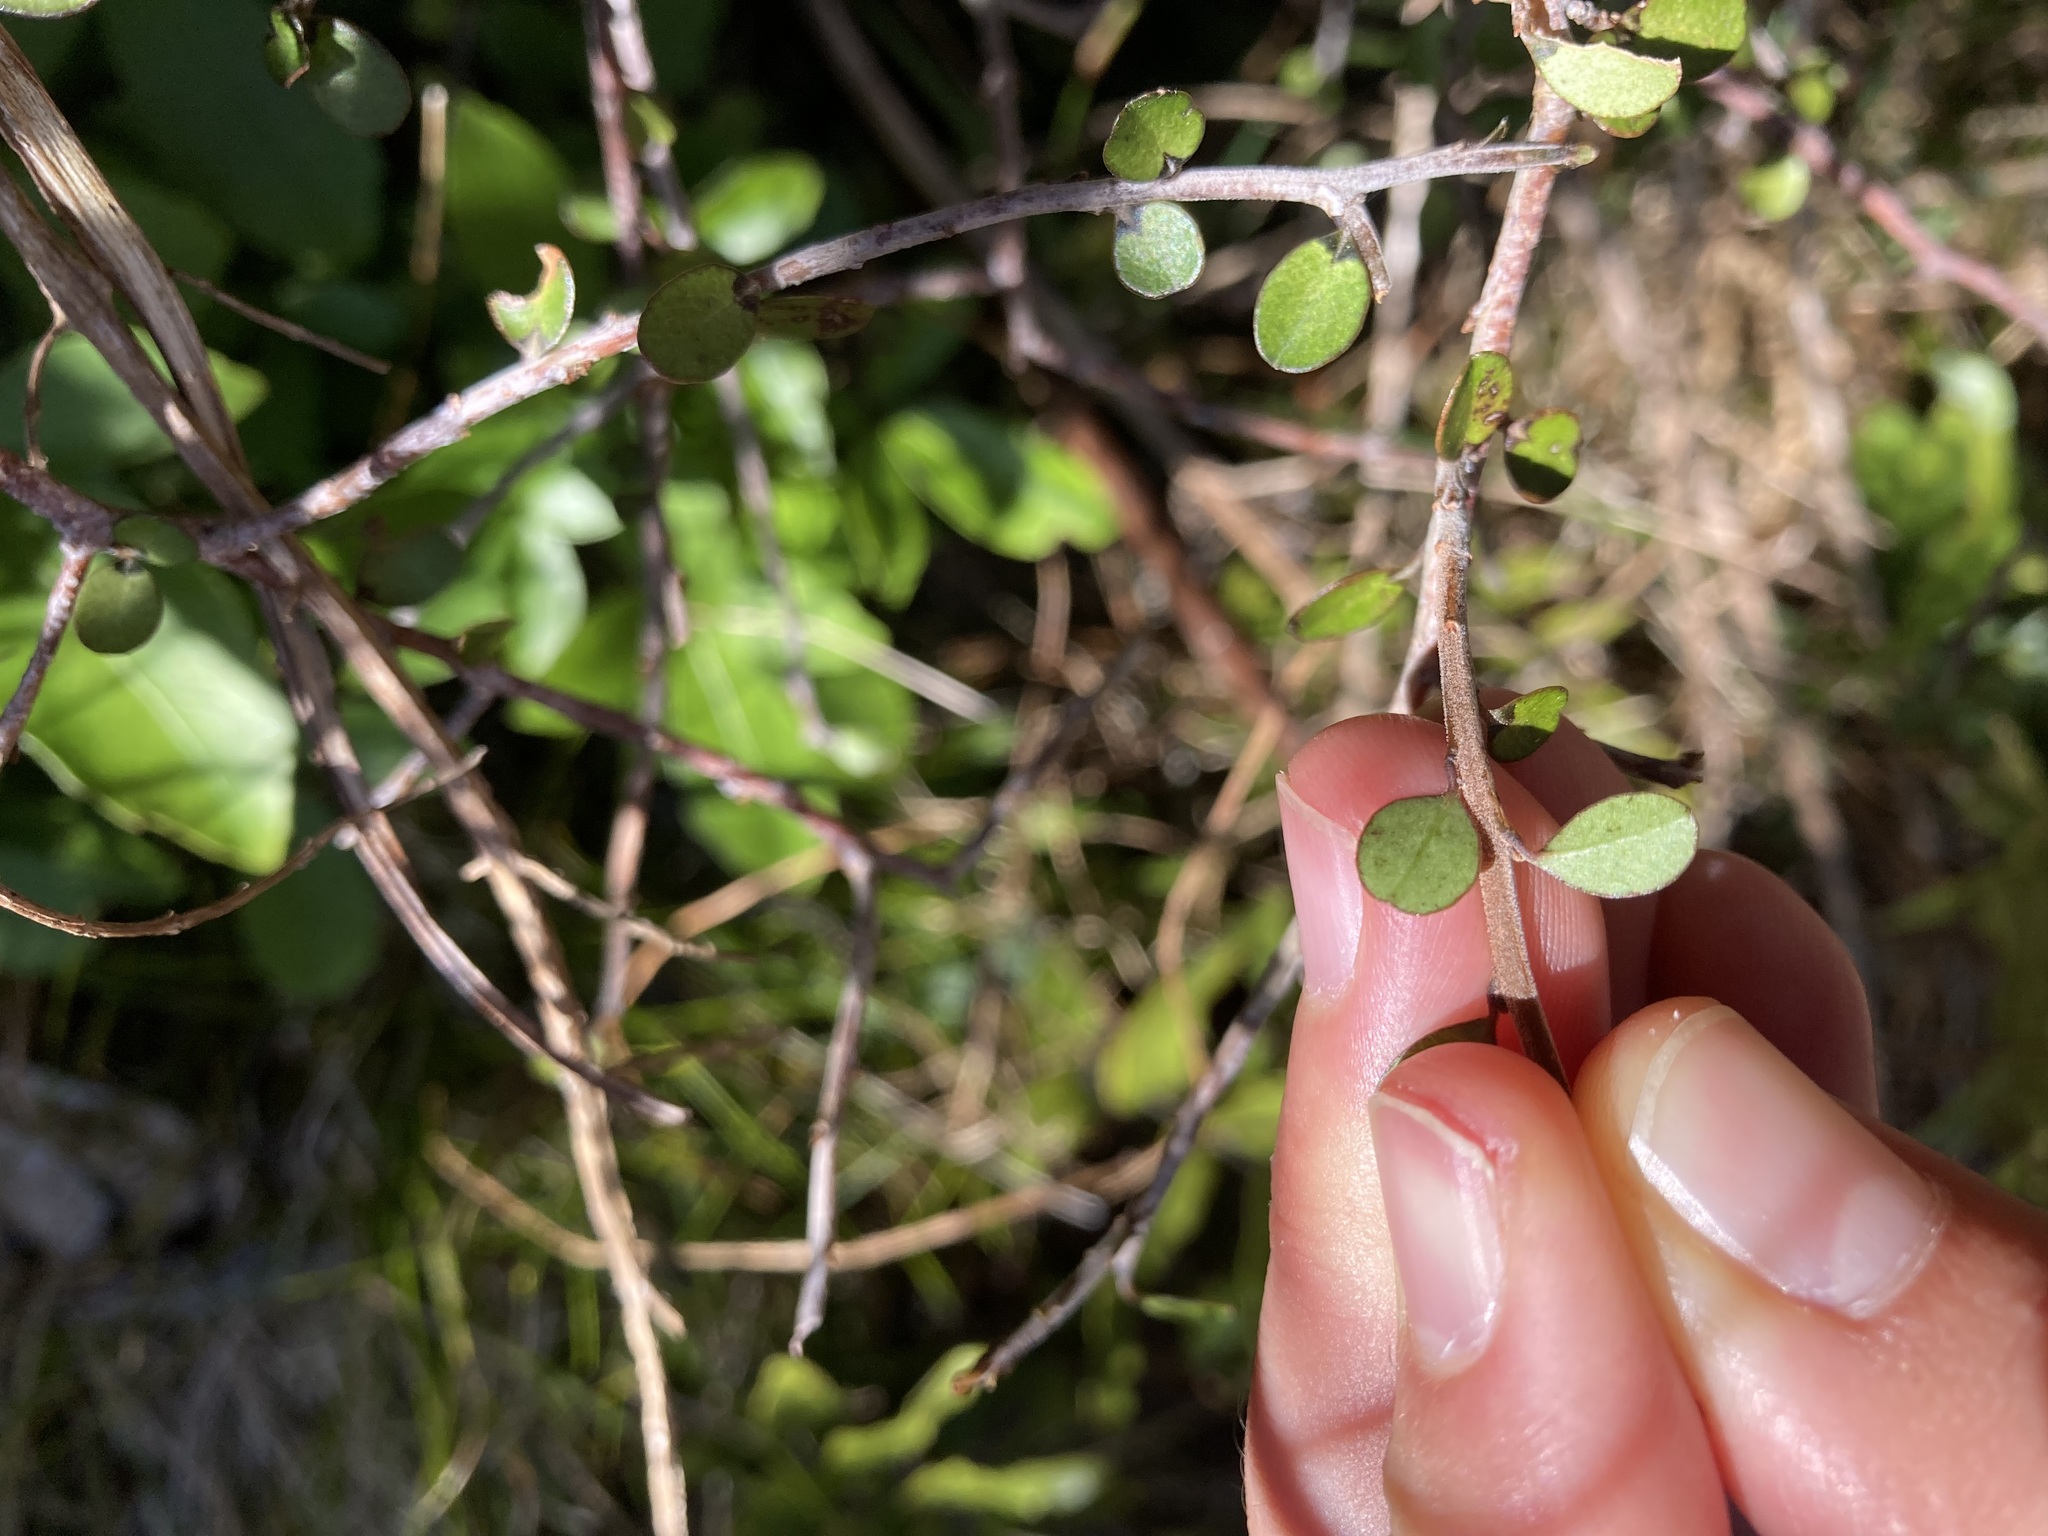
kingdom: Plantae
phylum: Tracheophyta
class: Magnoliopsida
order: Ericales
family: Primulaceae
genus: Myrsine
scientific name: Myrsine divaricata
